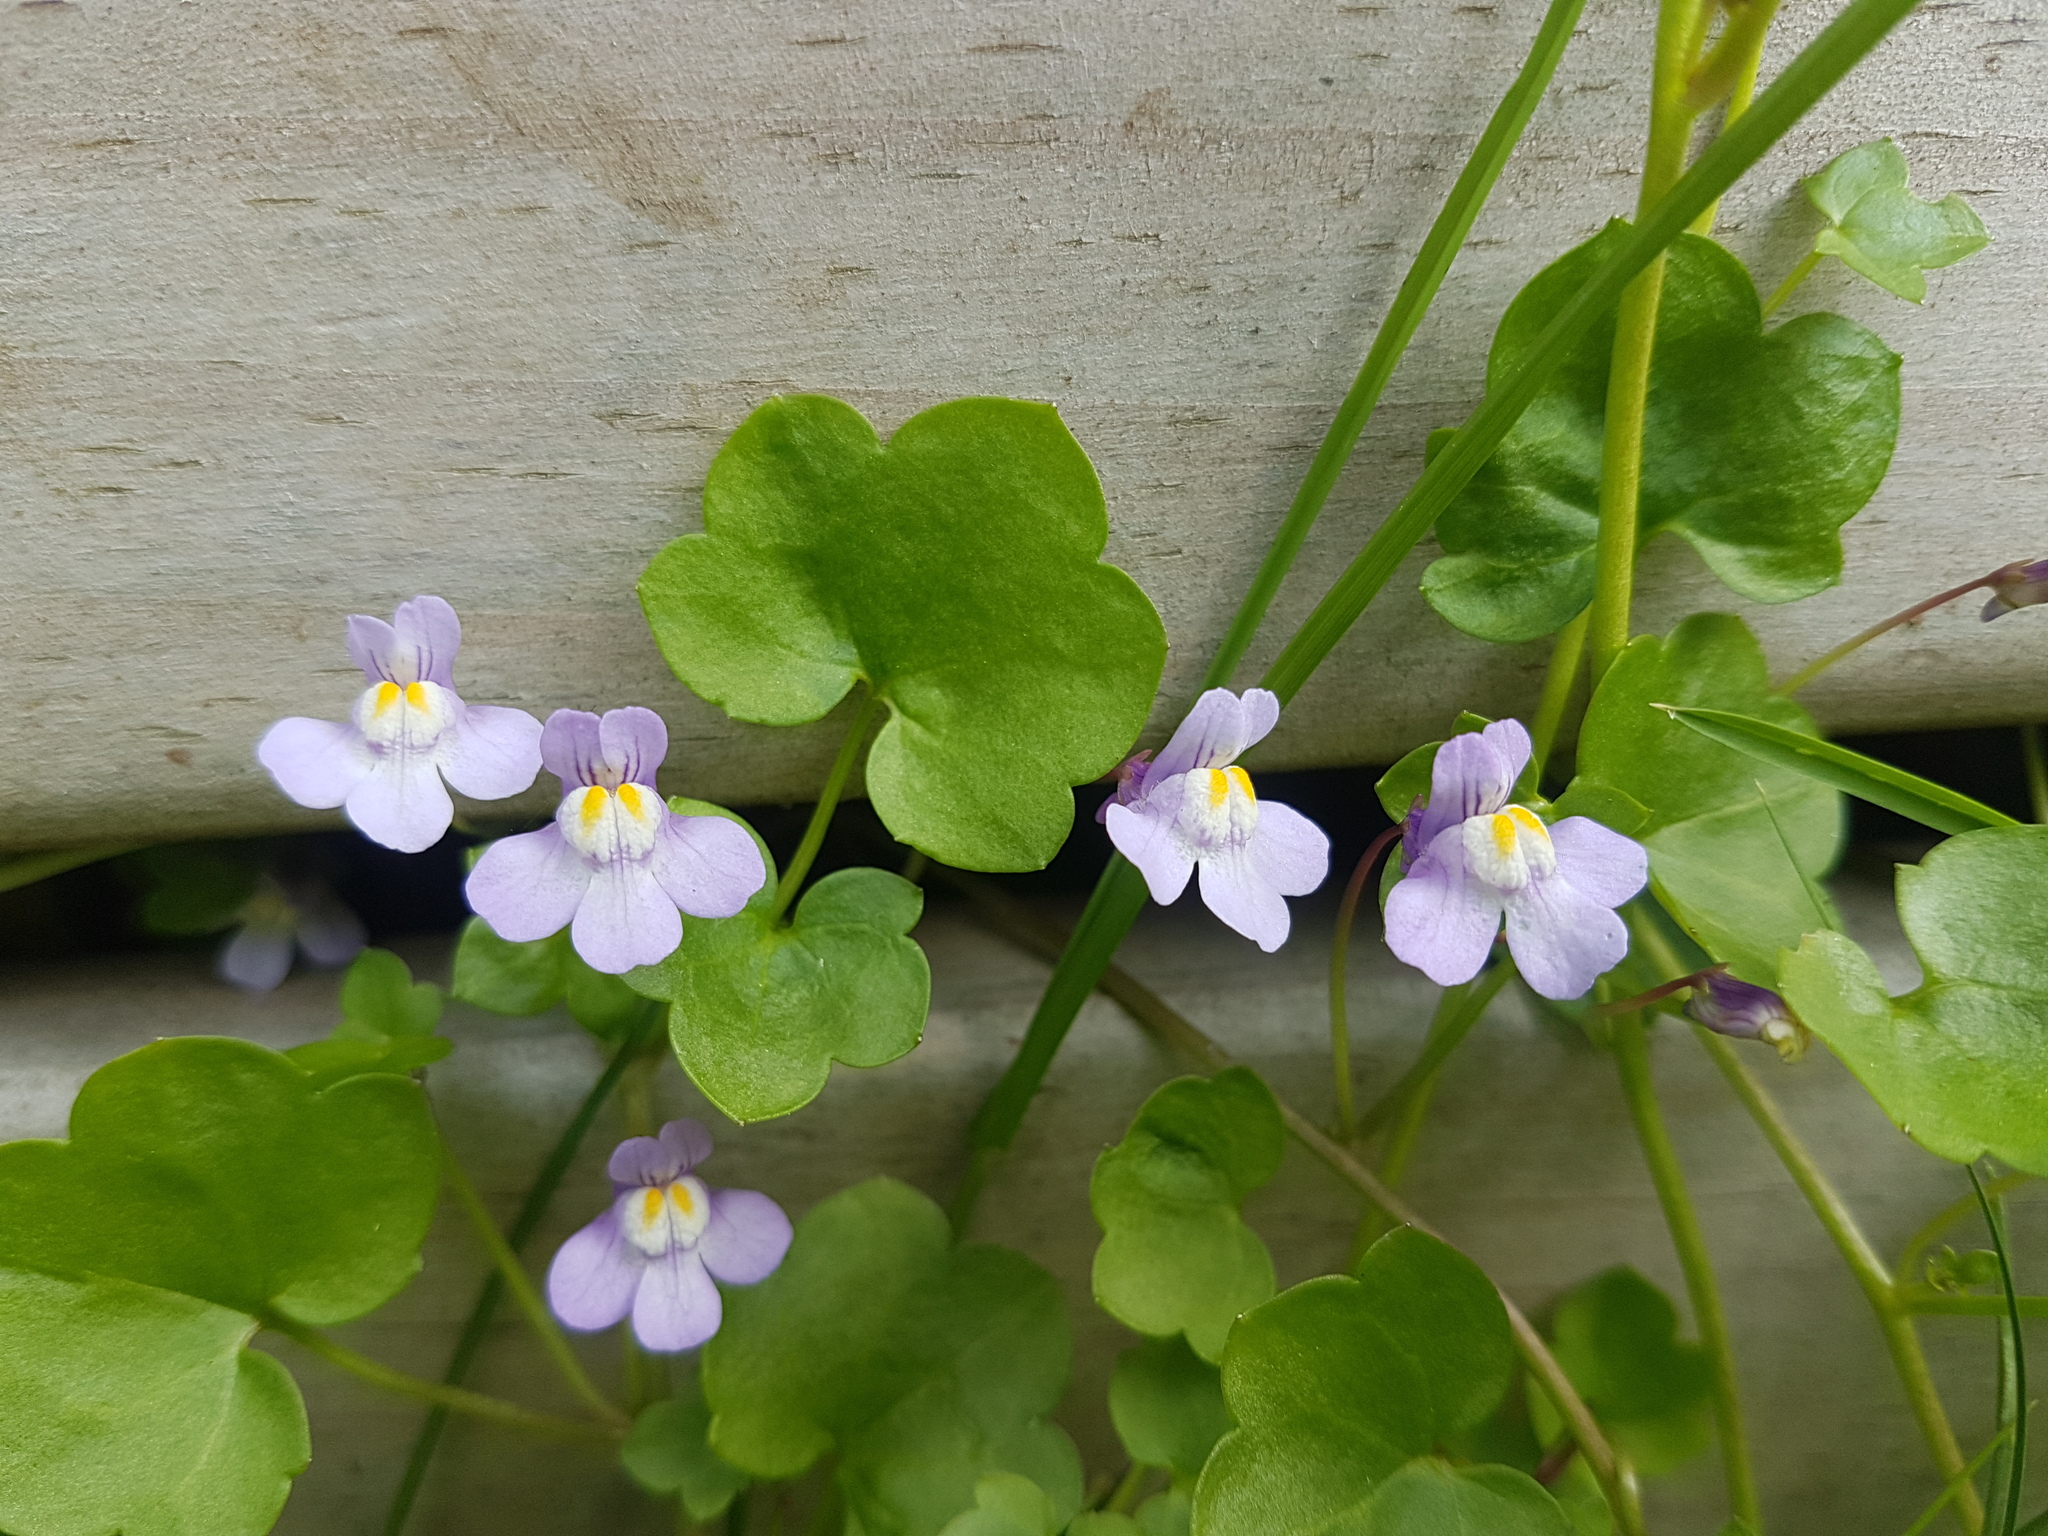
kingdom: Plantae
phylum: Tracheophyta
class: Magnoliopsida
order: Lamiales
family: Plantaginaceae
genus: Cymbalaria
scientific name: Cymbalaria muralis
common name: Ivy-leaved toadflax
